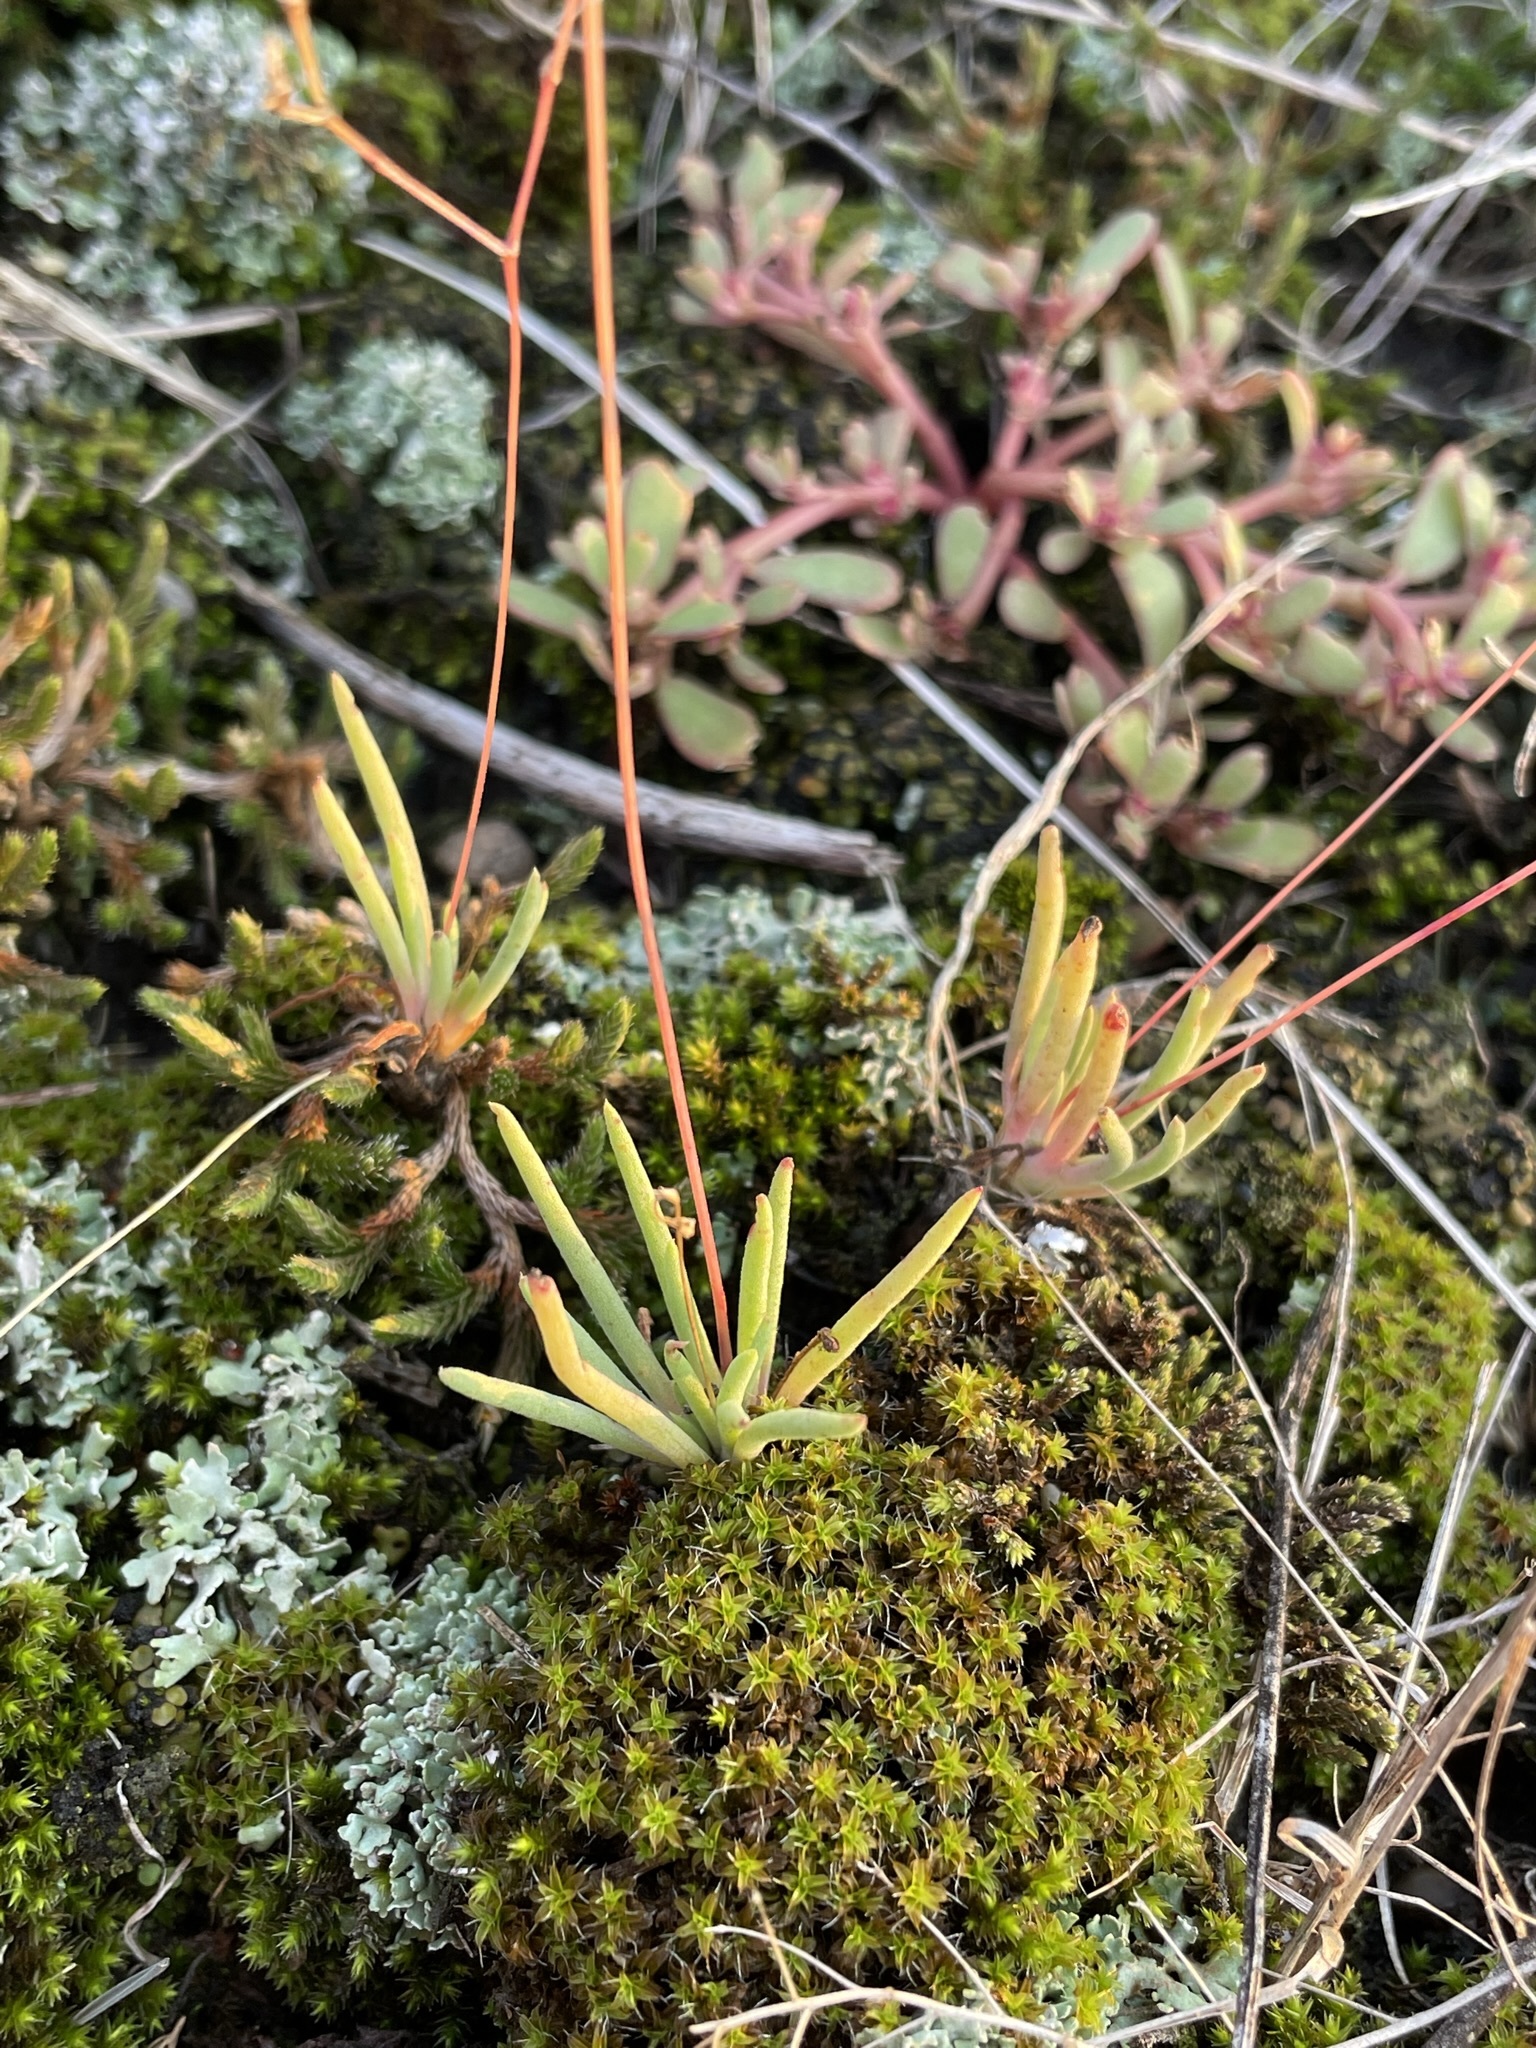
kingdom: Plantae
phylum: Tracheophyta
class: Magnoliopsida
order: Caryophyllales
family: Montiaceae
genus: Phemeranthus
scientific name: Phemeranthus parviflorus
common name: Sunbright
